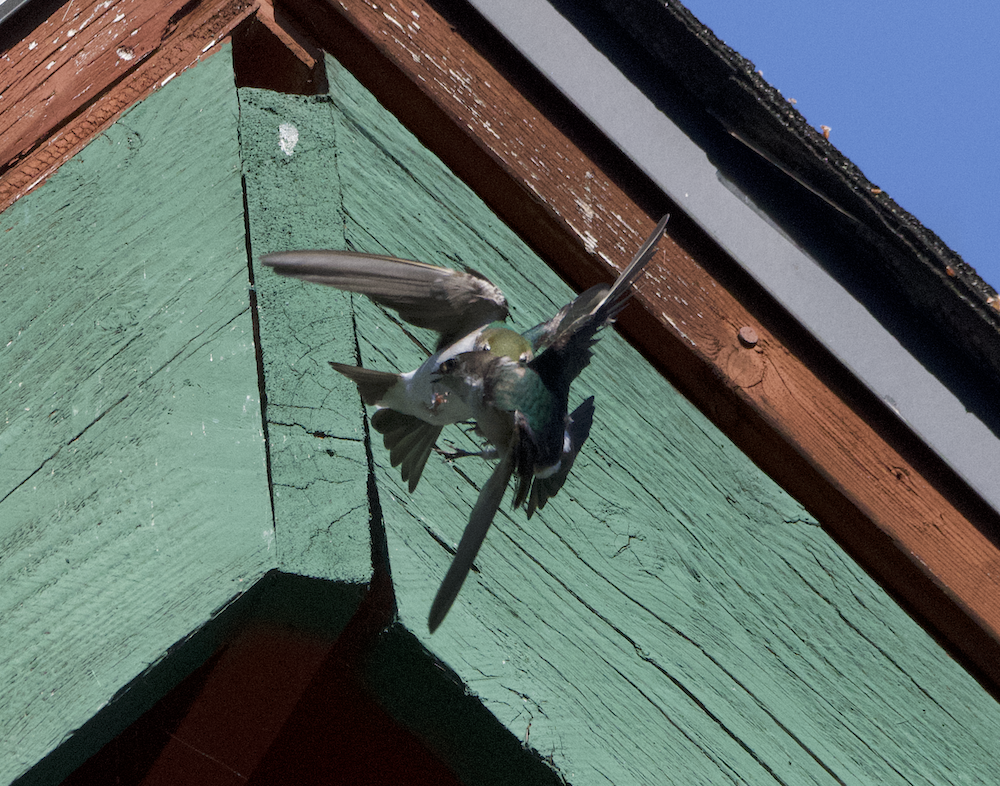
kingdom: Animalia
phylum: Chordata
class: Aves
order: Passeriformes
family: Hirundinidae
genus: Tachycineta
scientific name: Tachycineta thalassina
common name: Violet-green swallow
